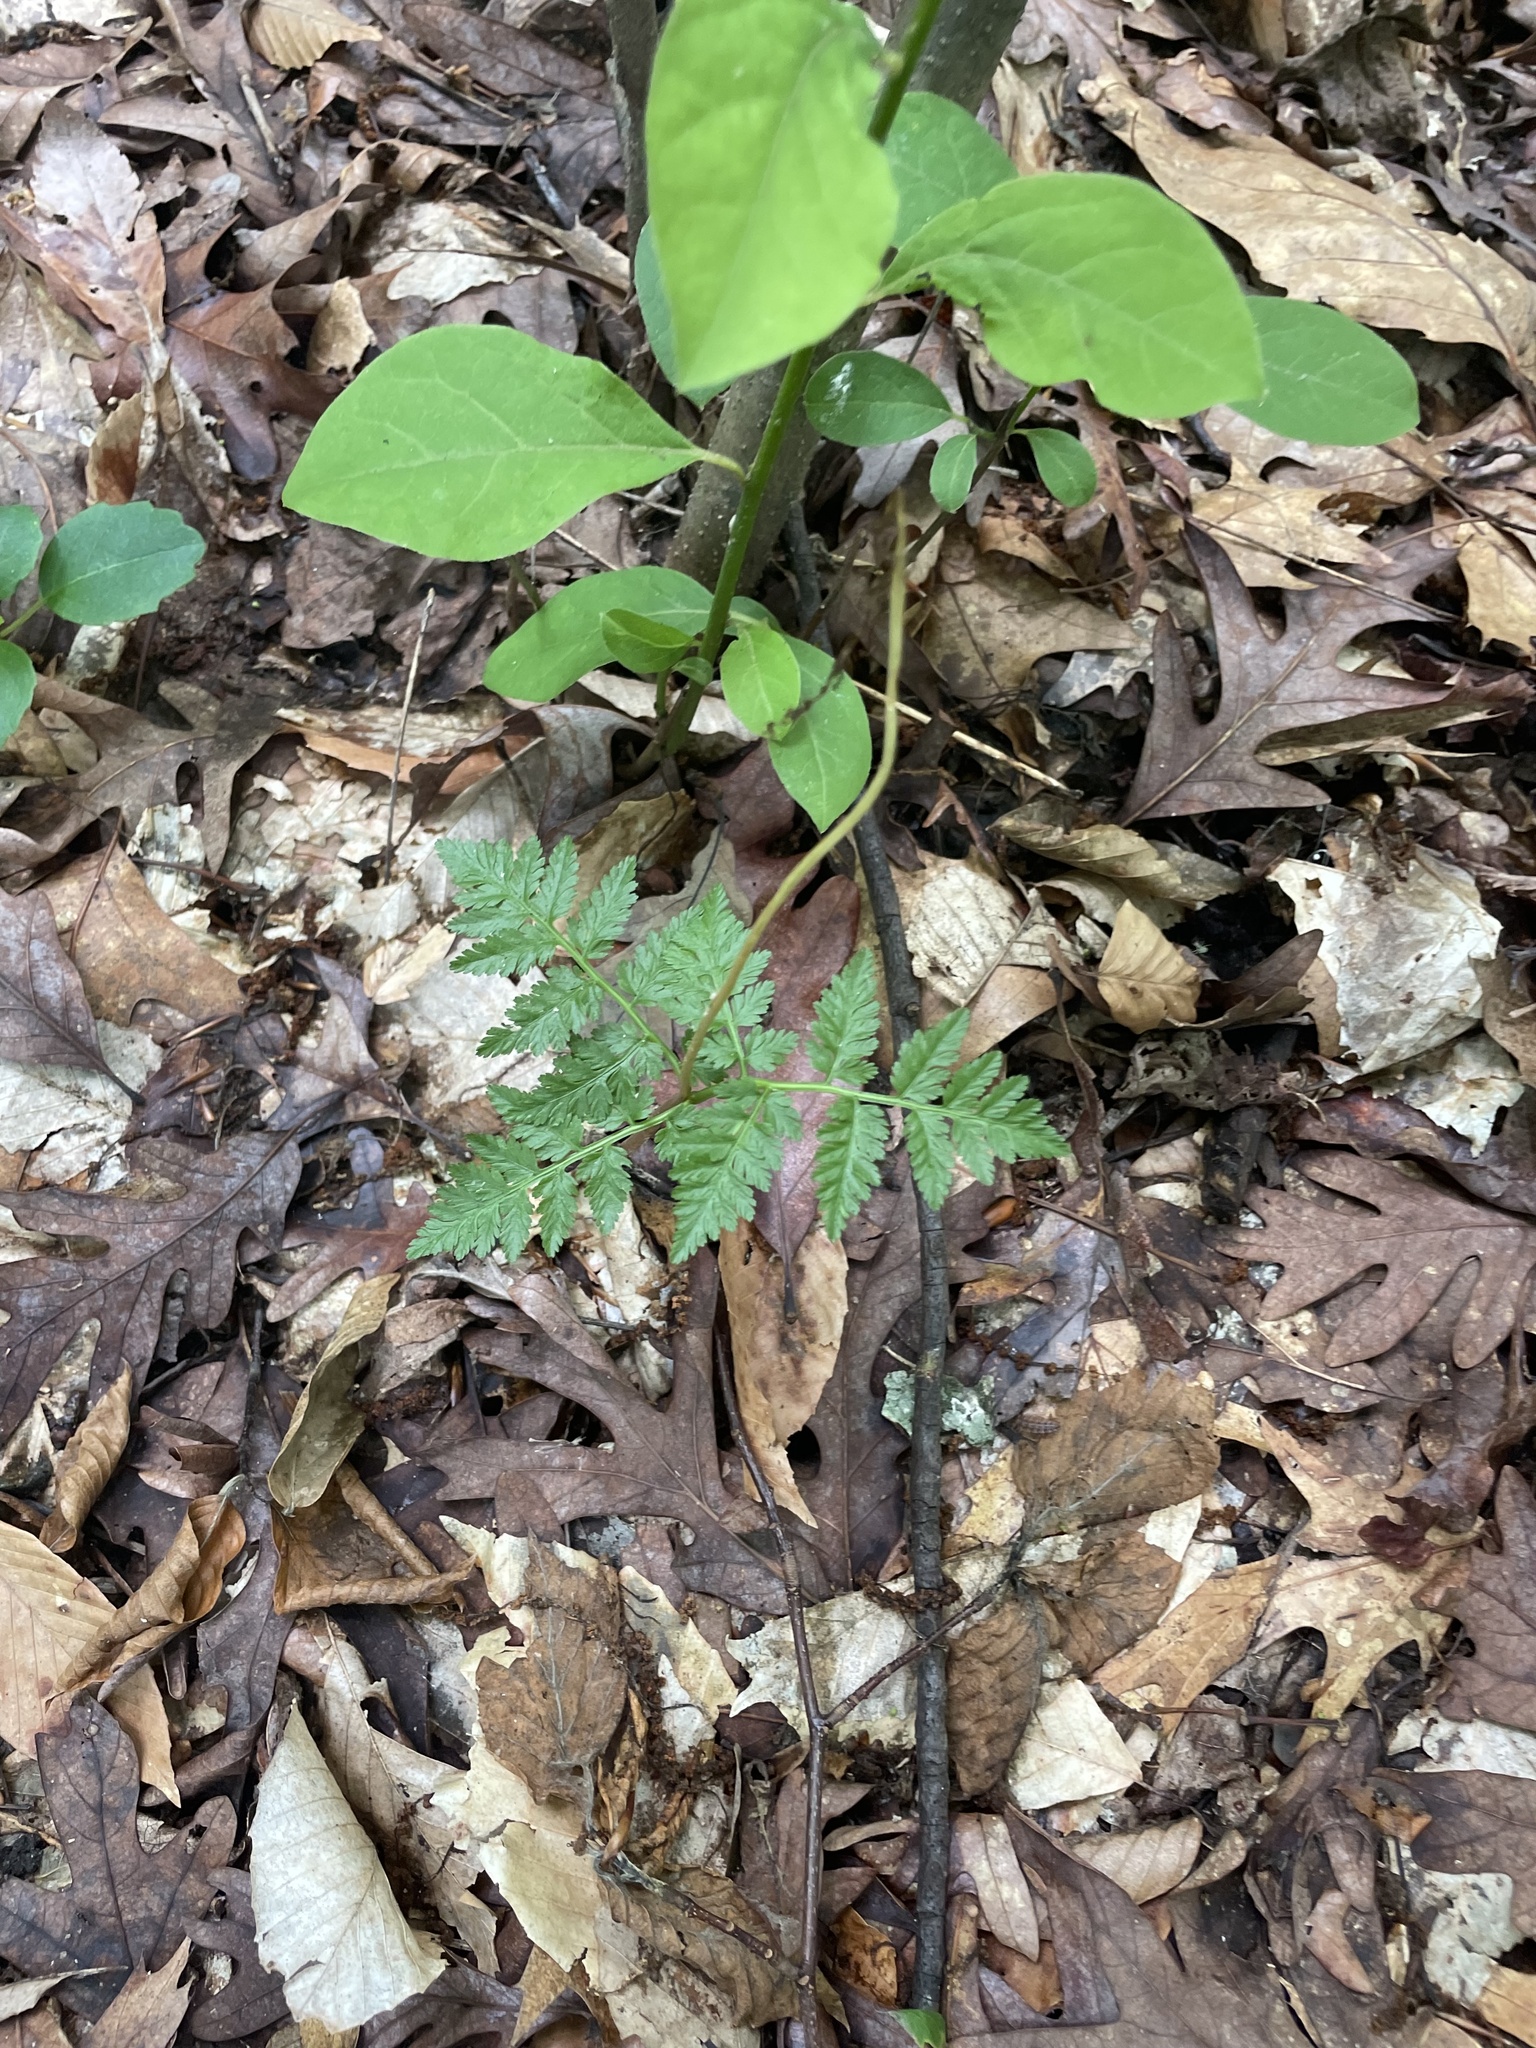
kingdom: Plantae
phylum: Tracheophyta
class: Polypodiopsida
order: Ophioglossales
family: Ophioglossaceae
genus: Botrypus
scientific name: Botrypus virginianus
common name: Common grapefern
